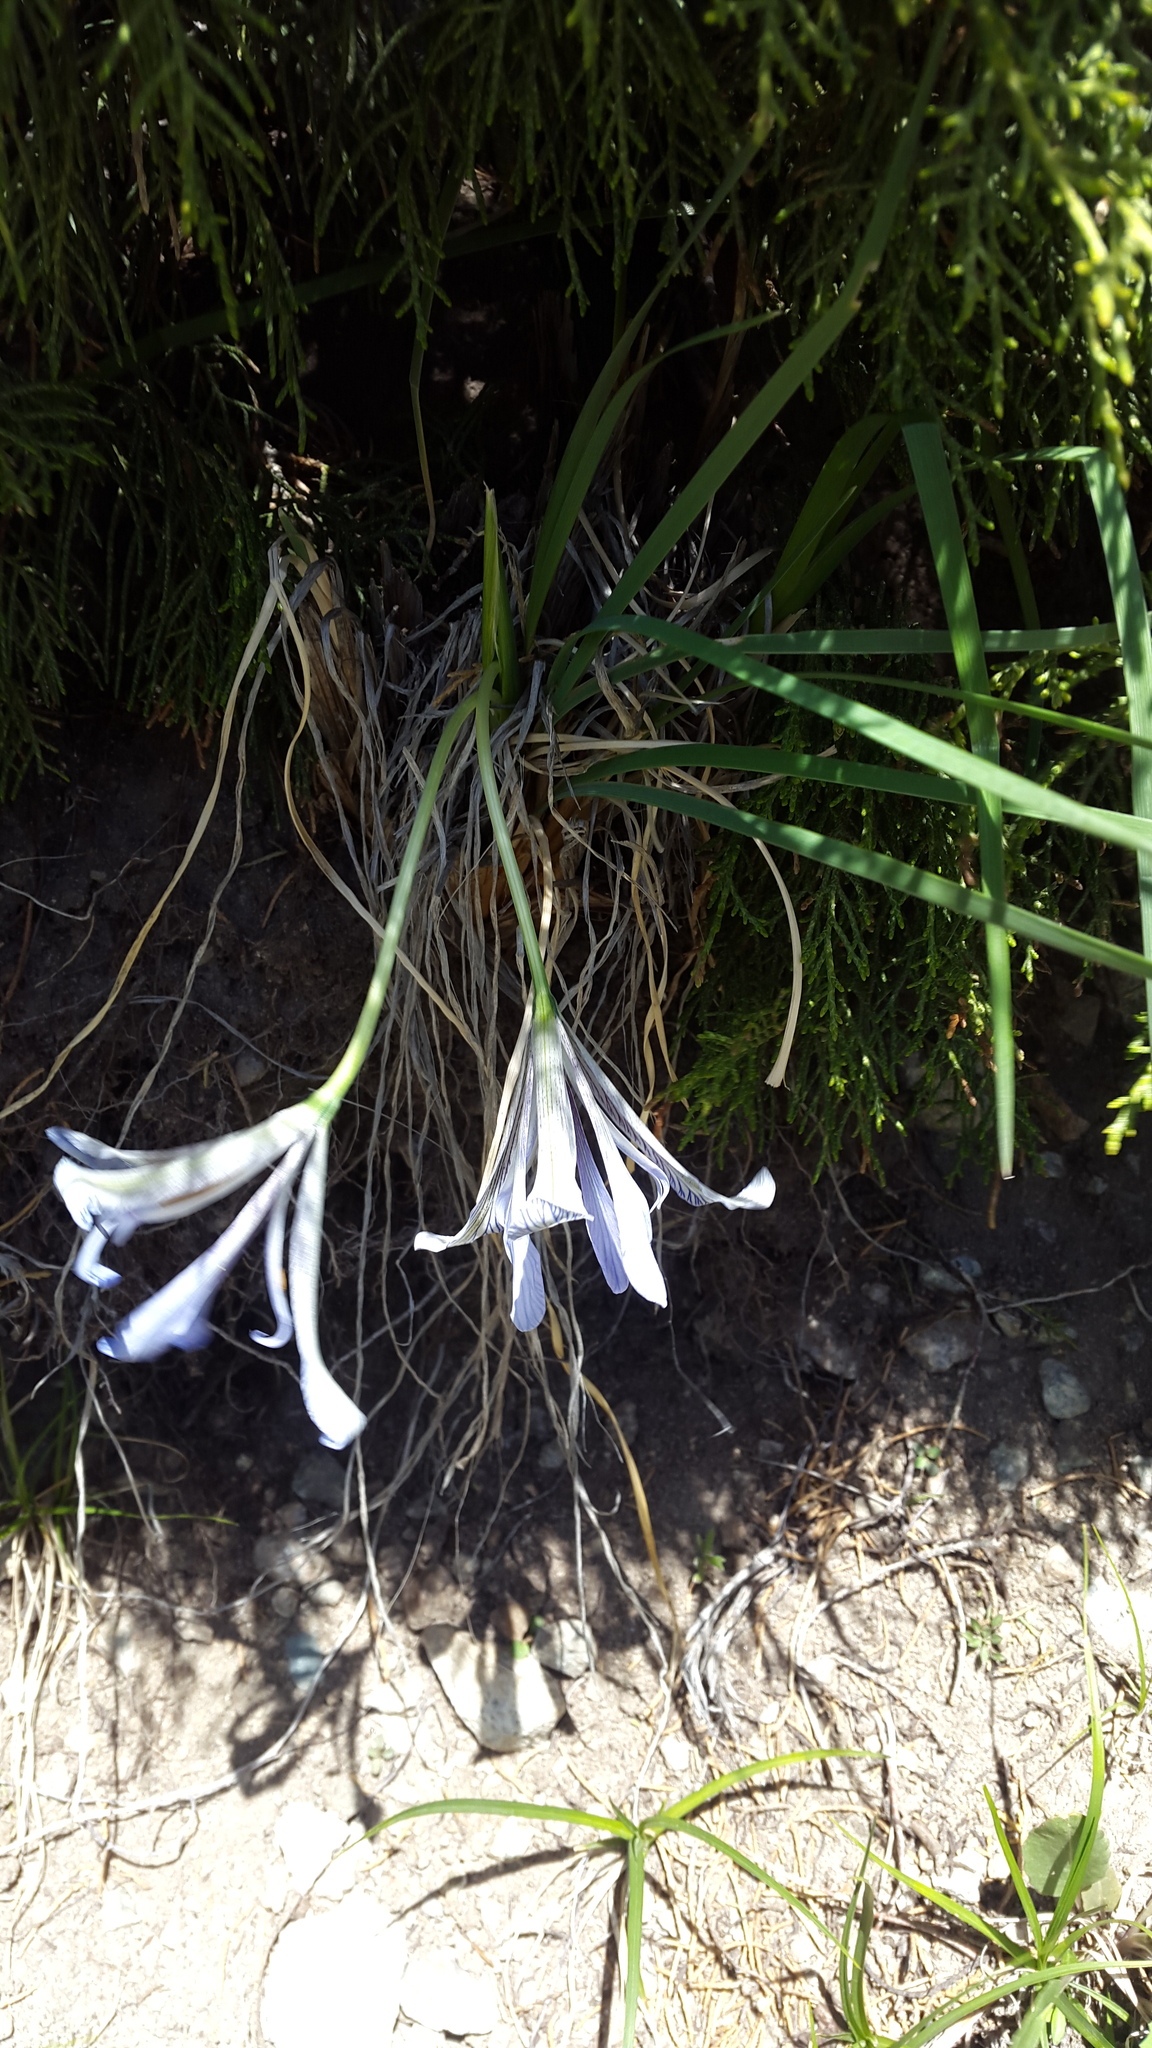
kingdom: Plantae
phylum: Tracheophyta
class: Liliopsida
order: Asparagales
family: Iridaceae
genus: Iris
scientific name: Iris loczyi
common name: Tian shan mountain iris
